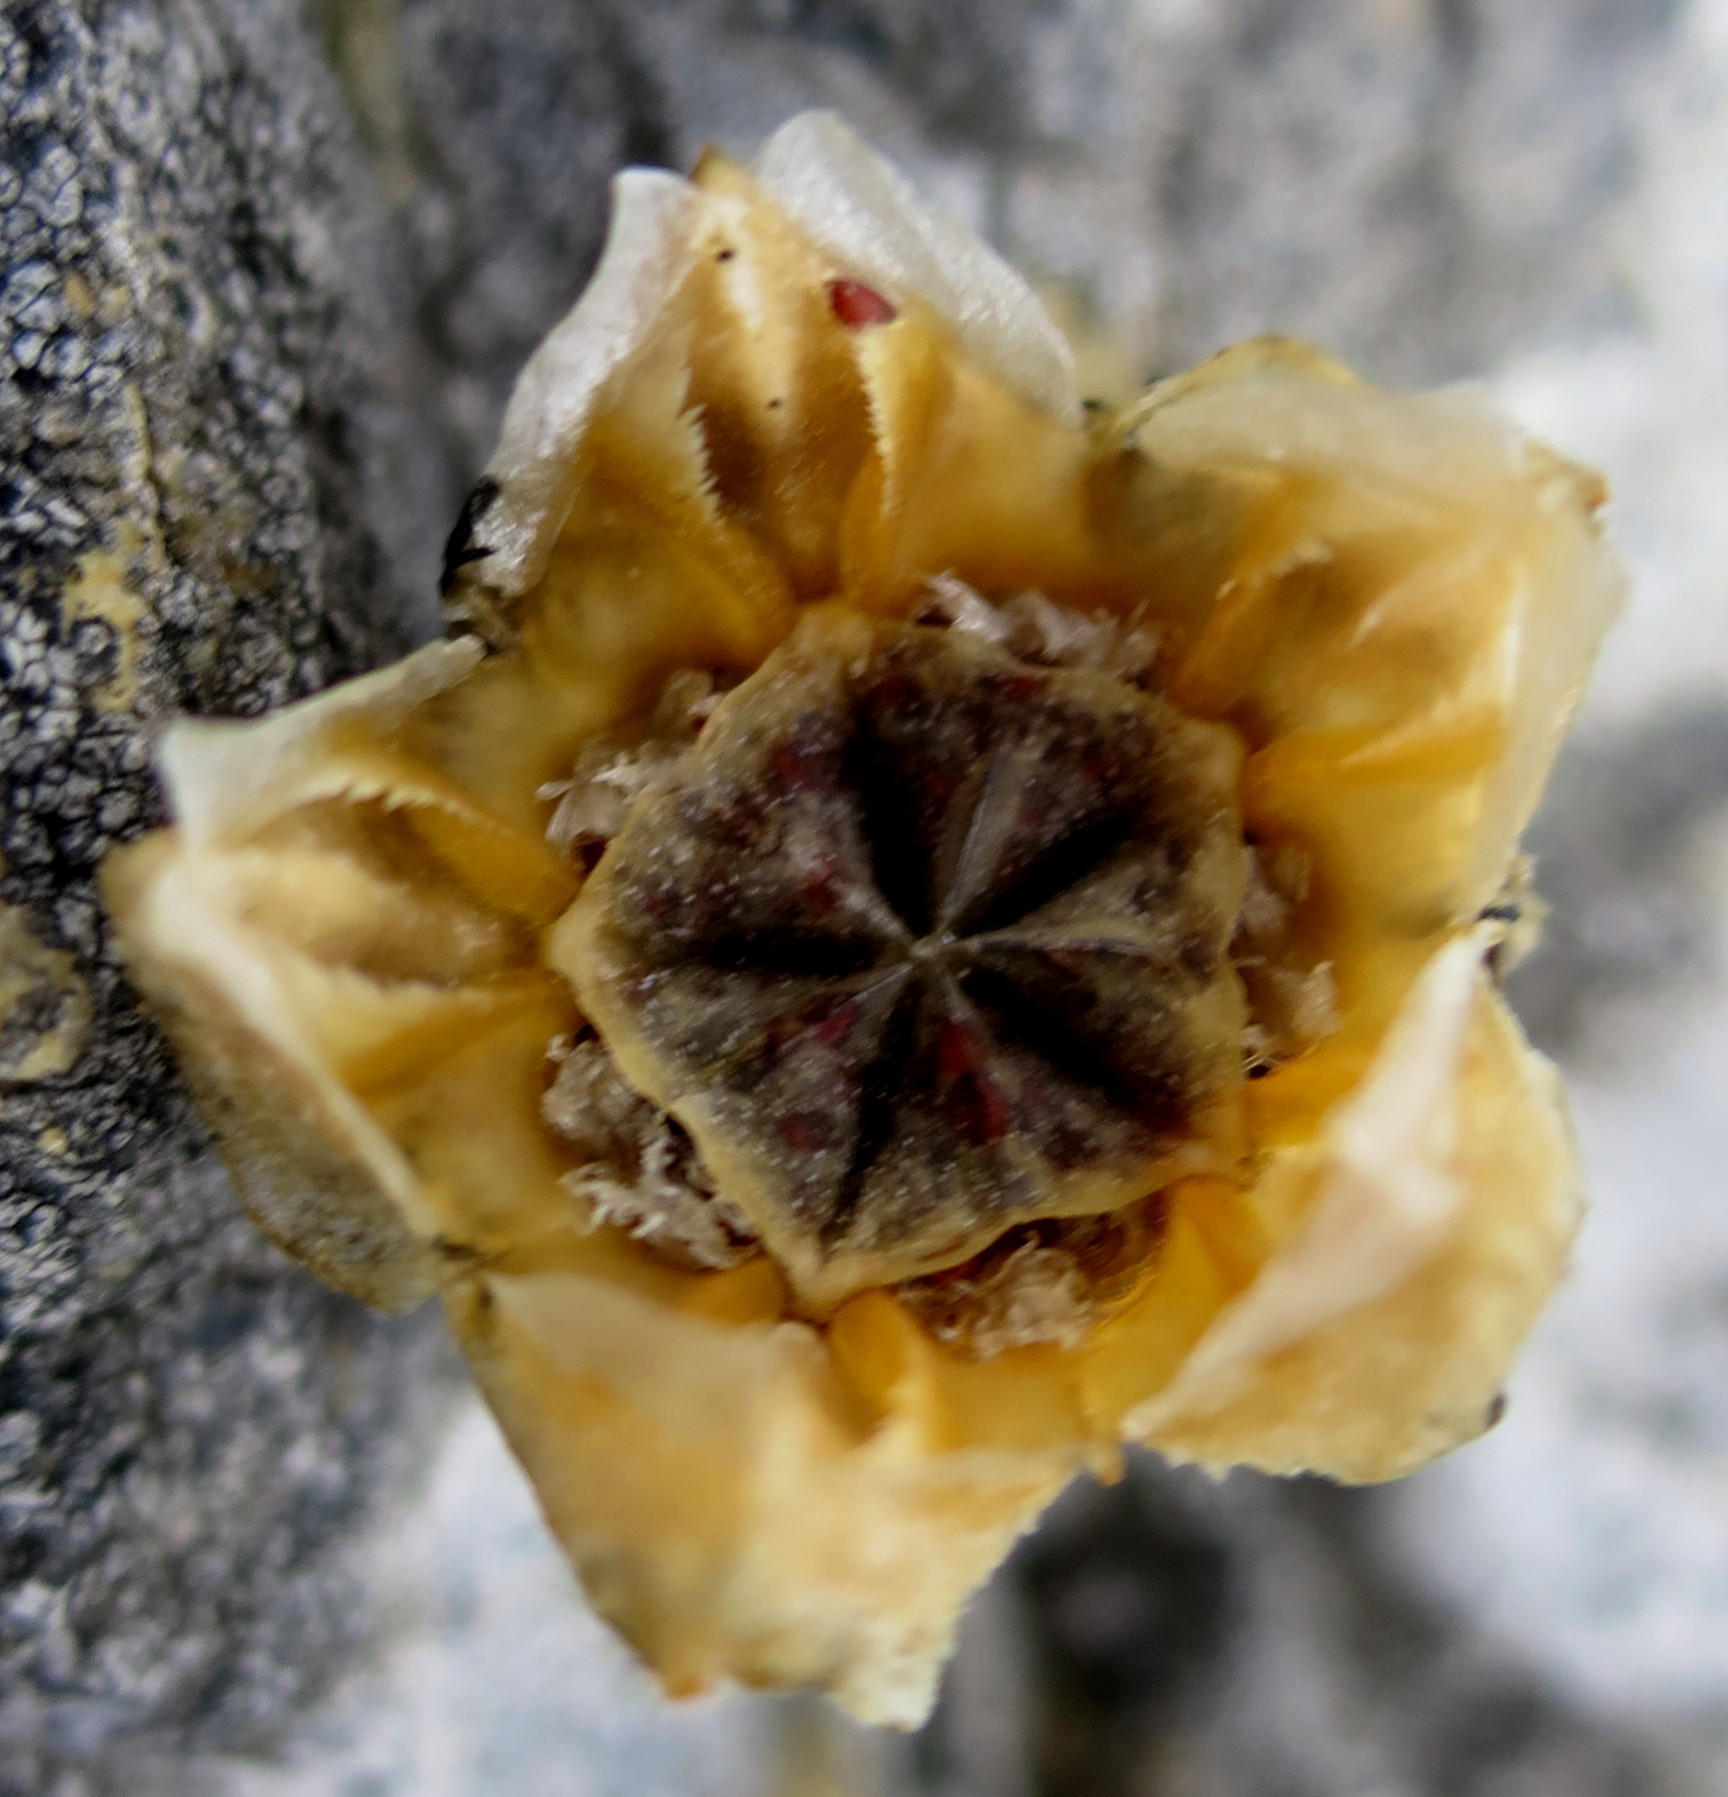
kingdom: Plantae
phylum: Tracheophyta
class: Magnoliopsida
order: Caryophyllales
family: Aizoaceae
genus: Drosanthemum
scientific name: Drosanthemum edwardsiae
